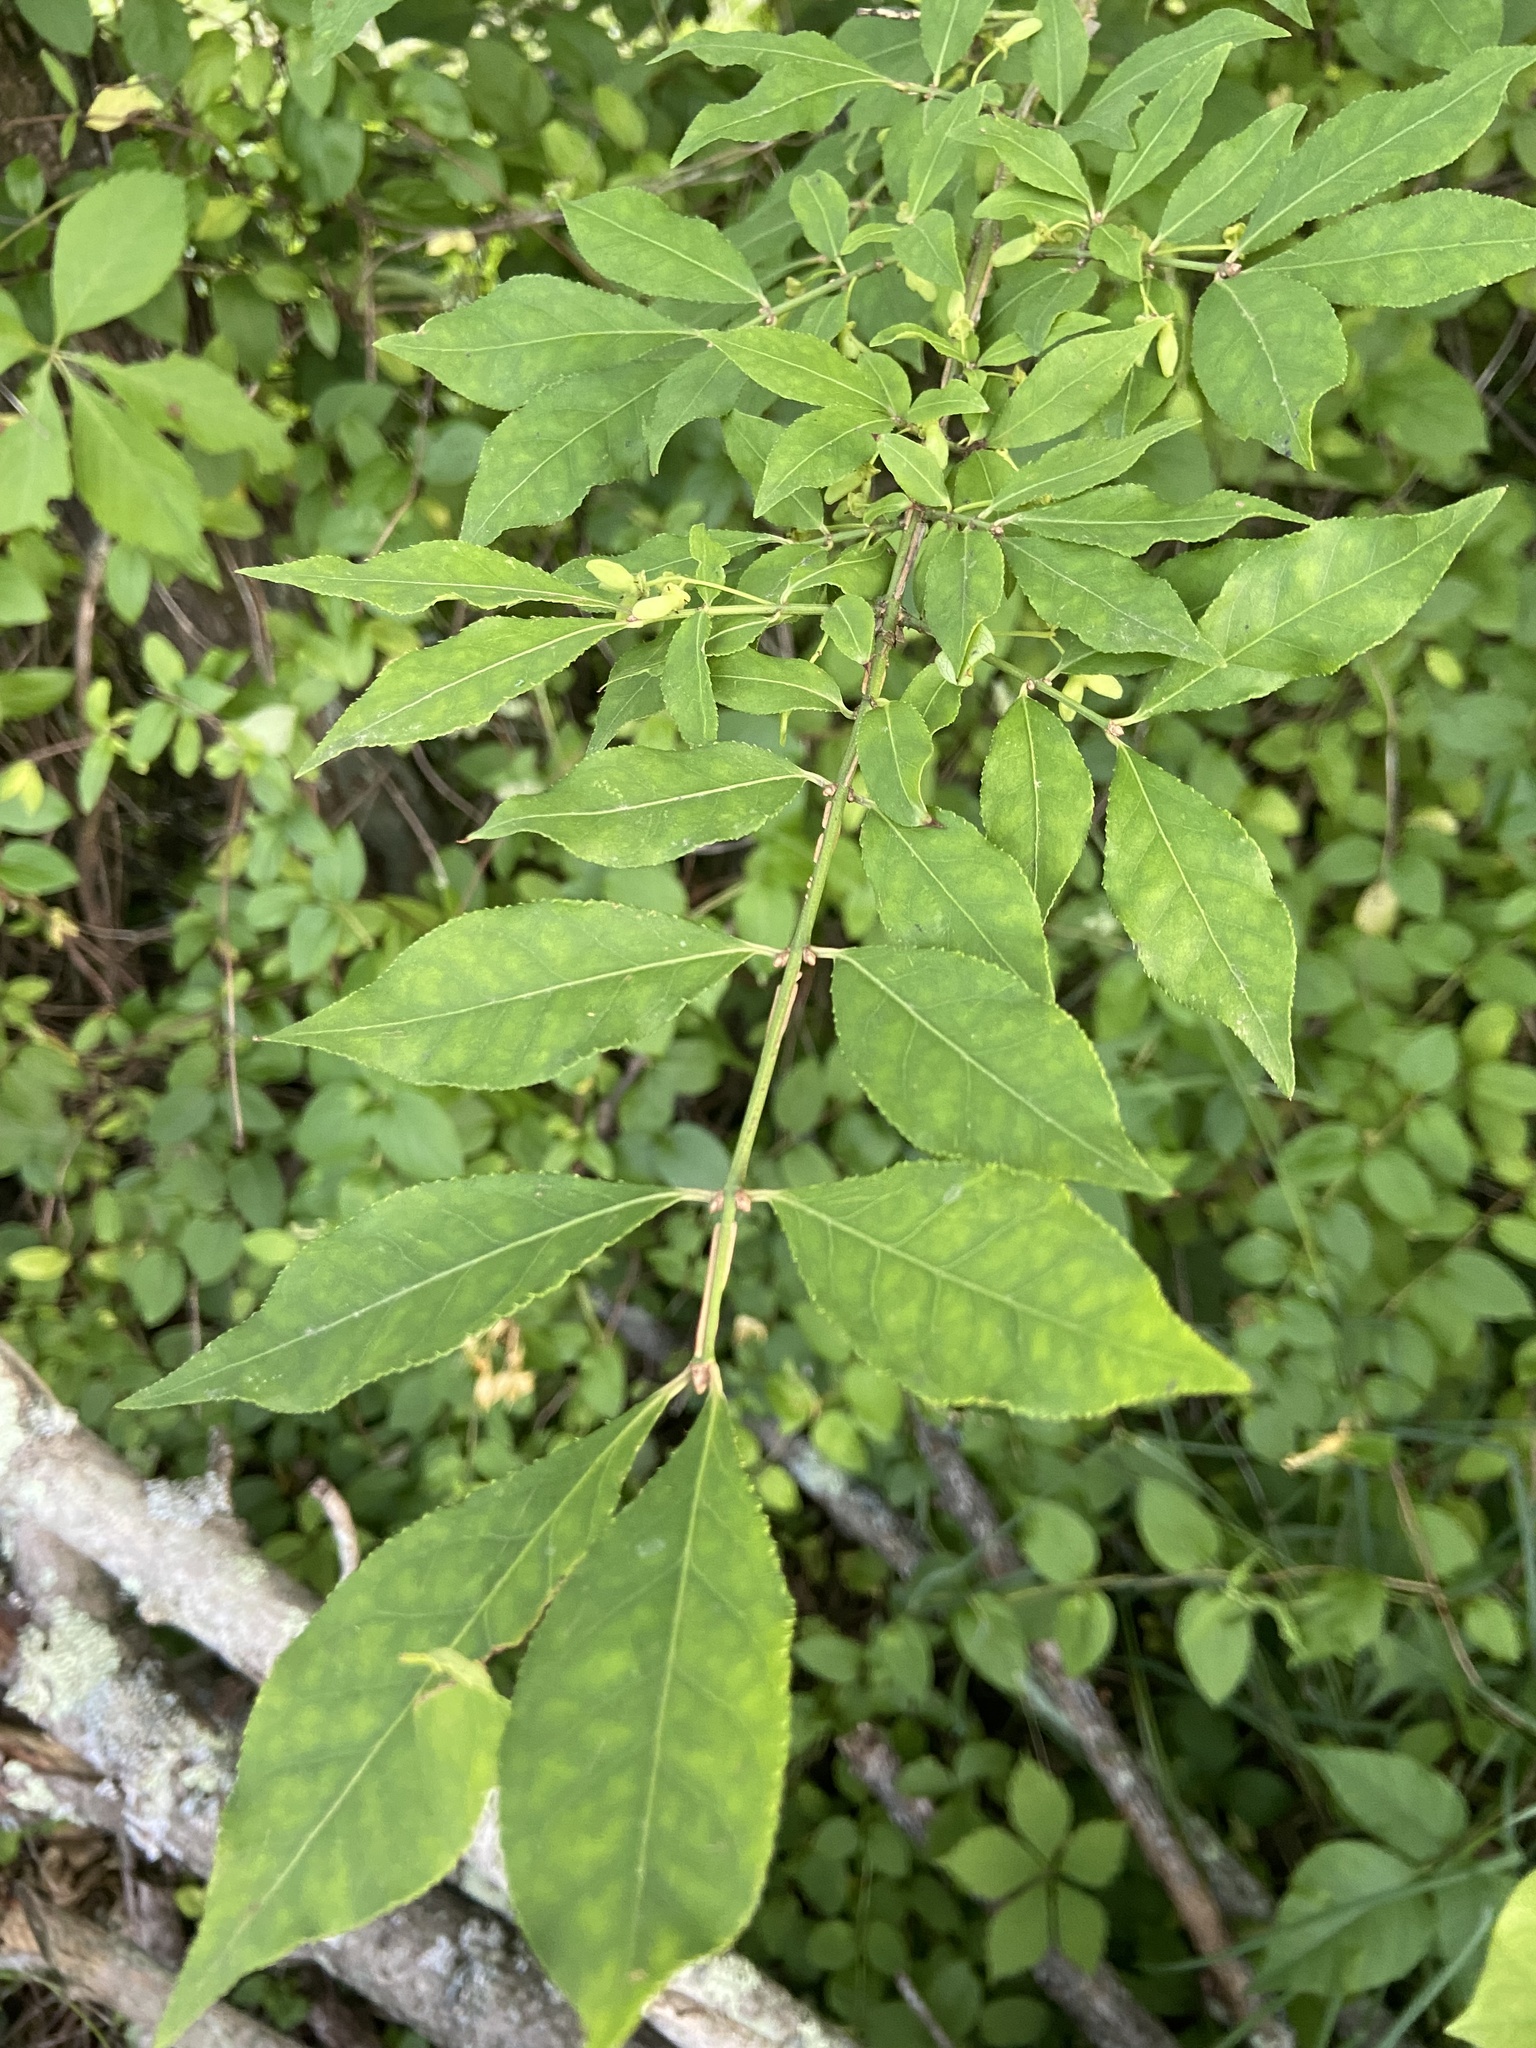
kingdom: Plantae
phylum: Tracheophyta
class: Magnoliopsida
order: Celastrales
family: Celastraceae
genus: Euonymus
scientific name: Euonymus alatus
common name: Winged euonymus
